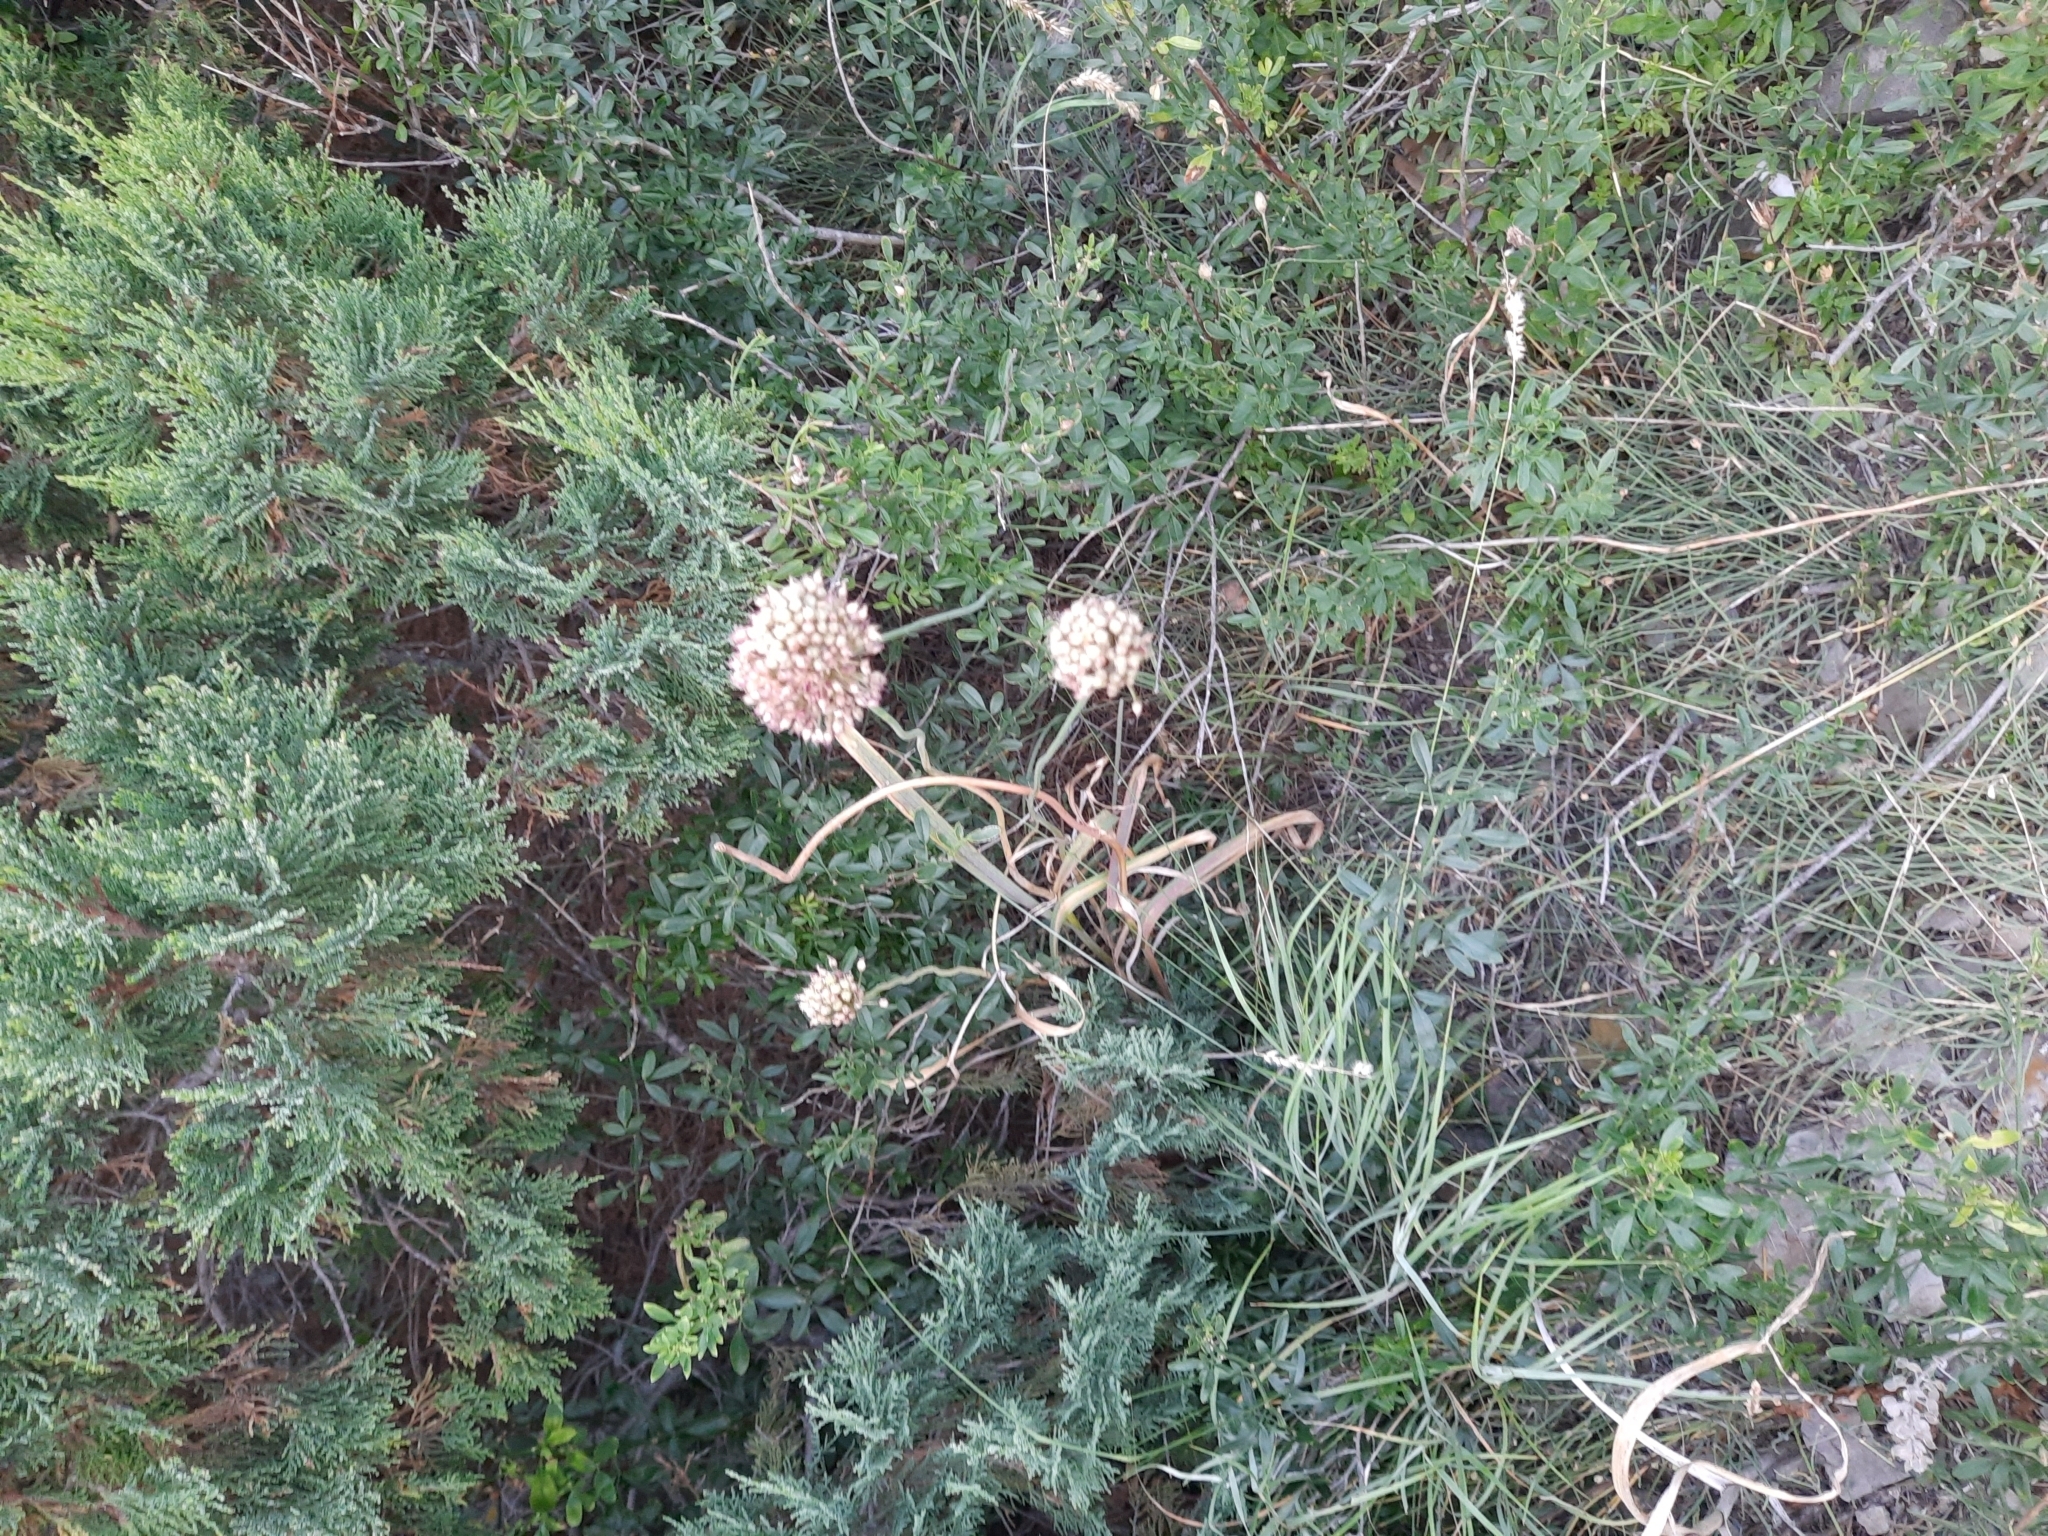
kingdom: Plantae
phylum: Tracheophyta
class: Liliopsida
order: Asparagales
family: Amaryllidaceae
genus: Allium
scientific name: Allium atroviolaceum
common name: Broadleaf wild leek
